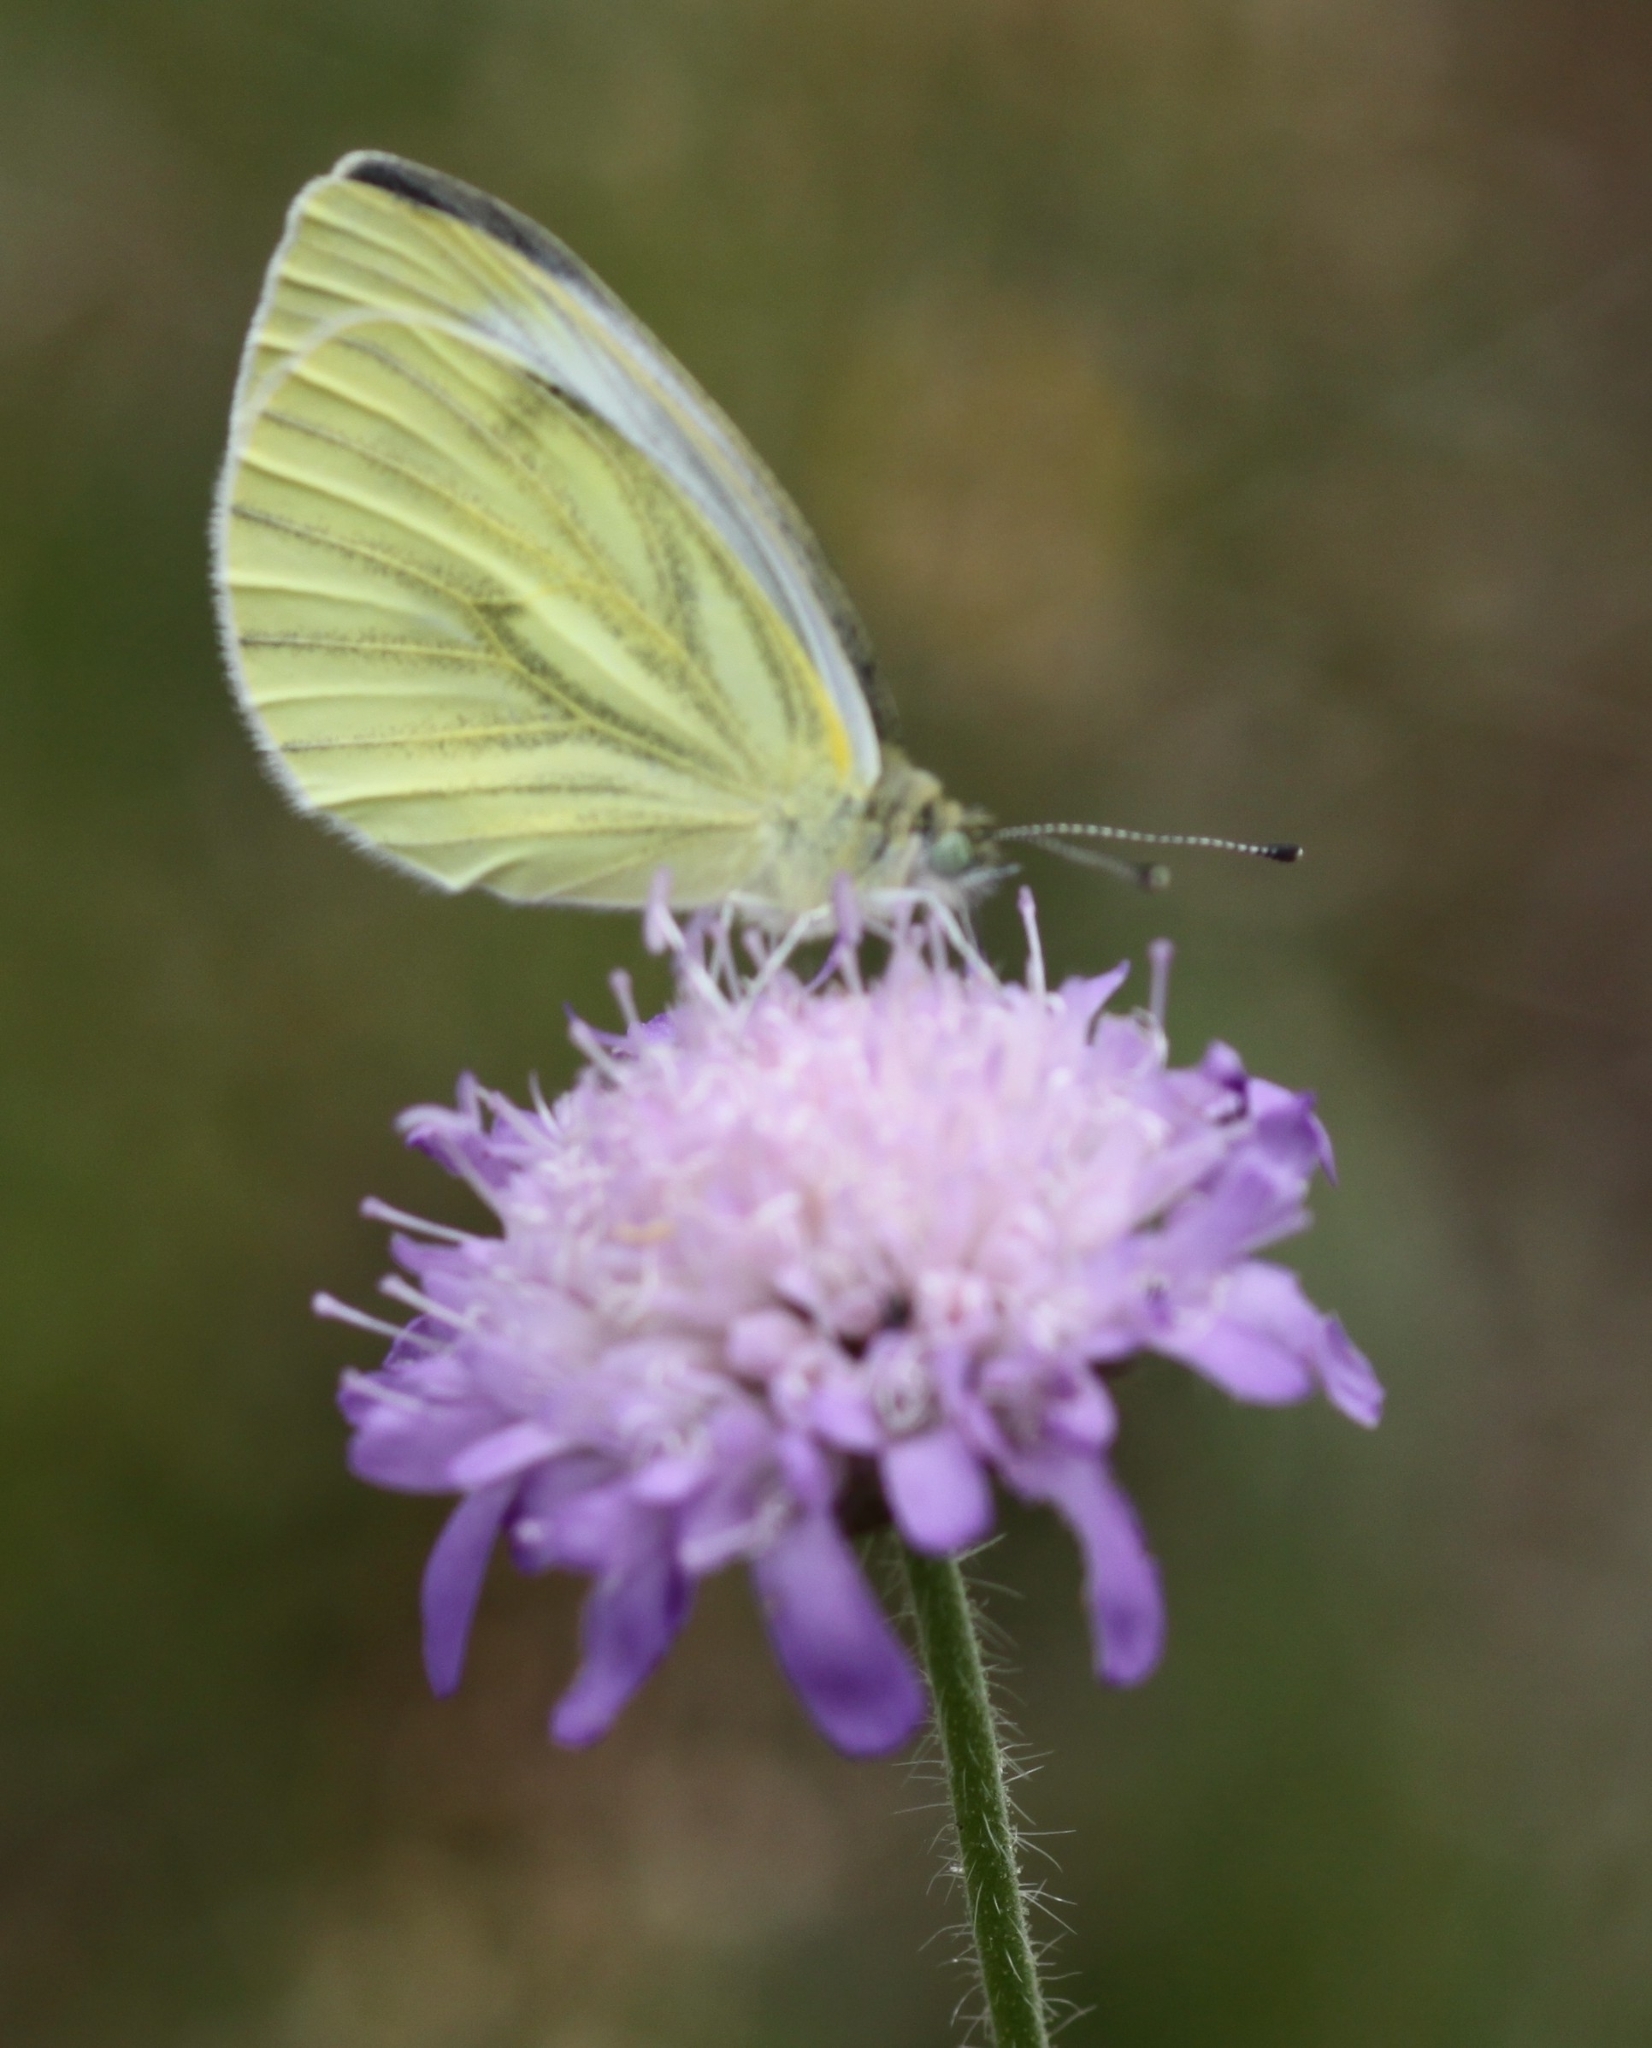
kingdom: Animalia
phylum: Arthropoda
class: Insecta
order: Lepidoptera
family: Pieridae
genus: Pieris
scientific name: Pieris napi
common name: Green-veined white
